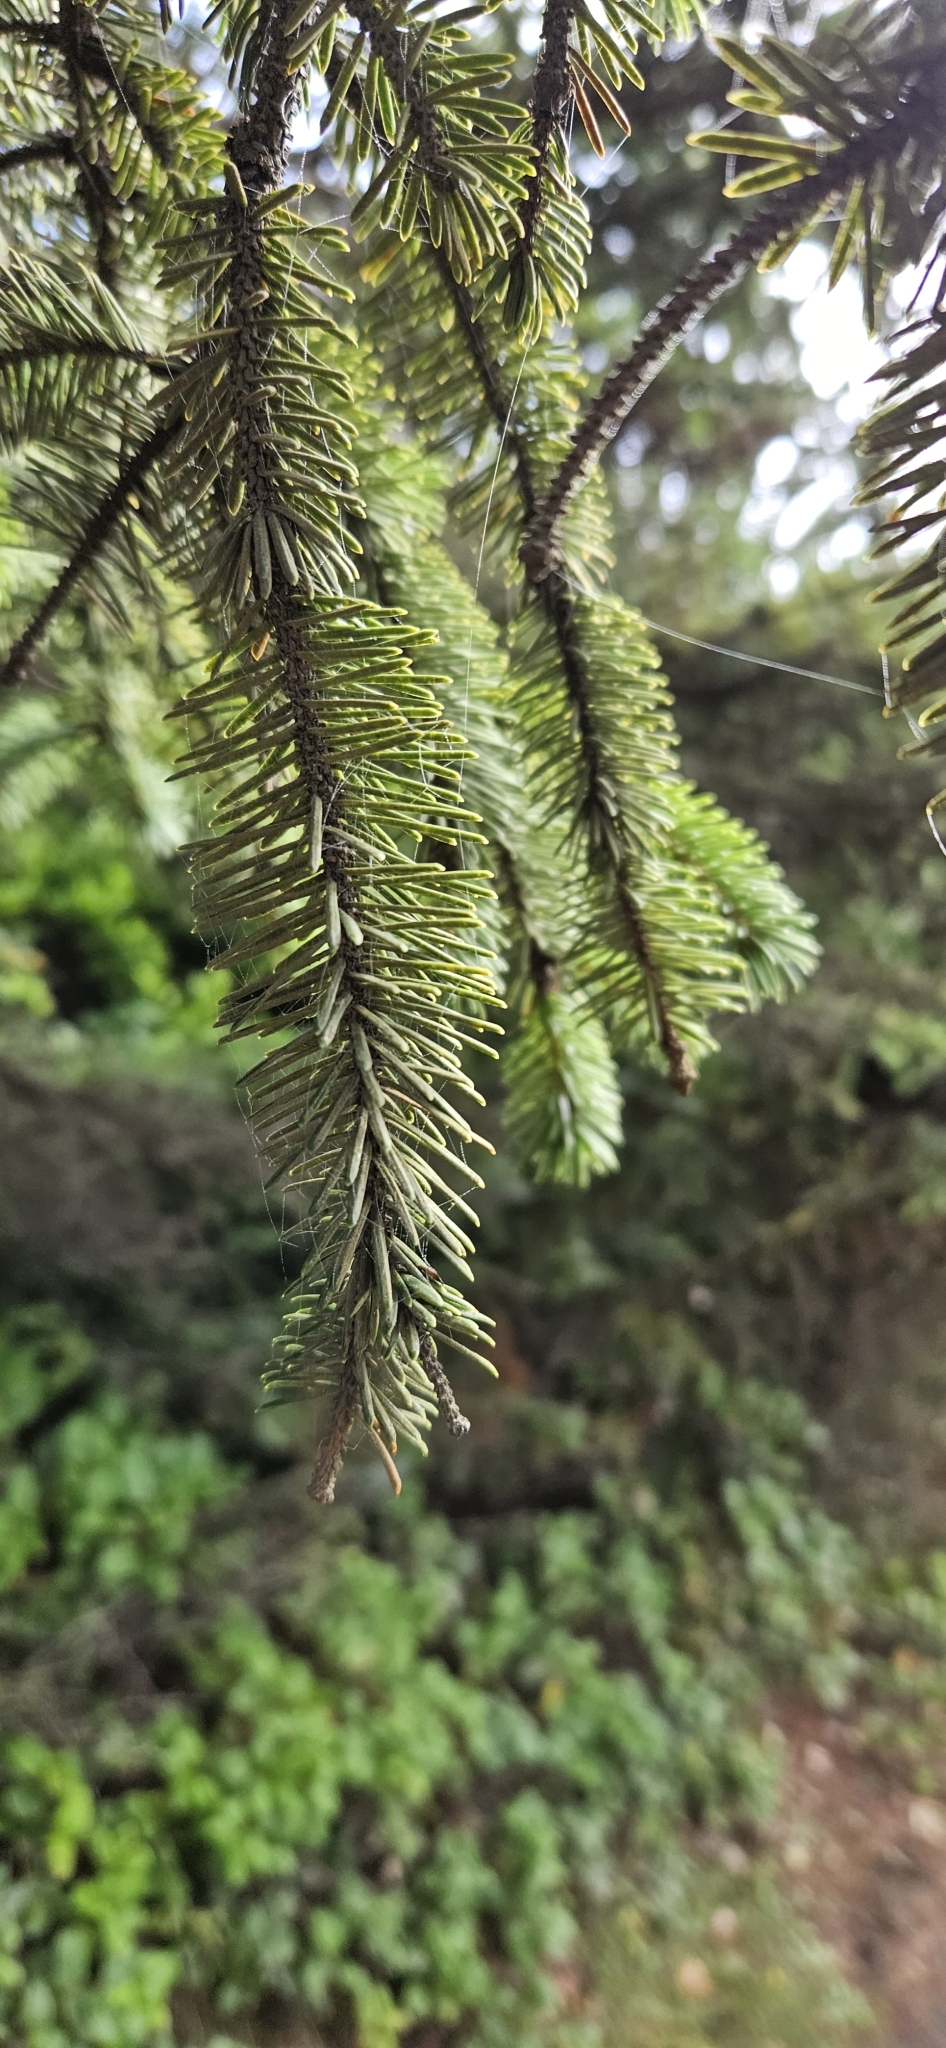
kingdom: Plantae
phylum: Tracheophyta
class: Pinopsida
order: Pinales
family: Pinaceae
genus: Picea
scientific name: Picea sitchensis
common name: Sitka spruce
